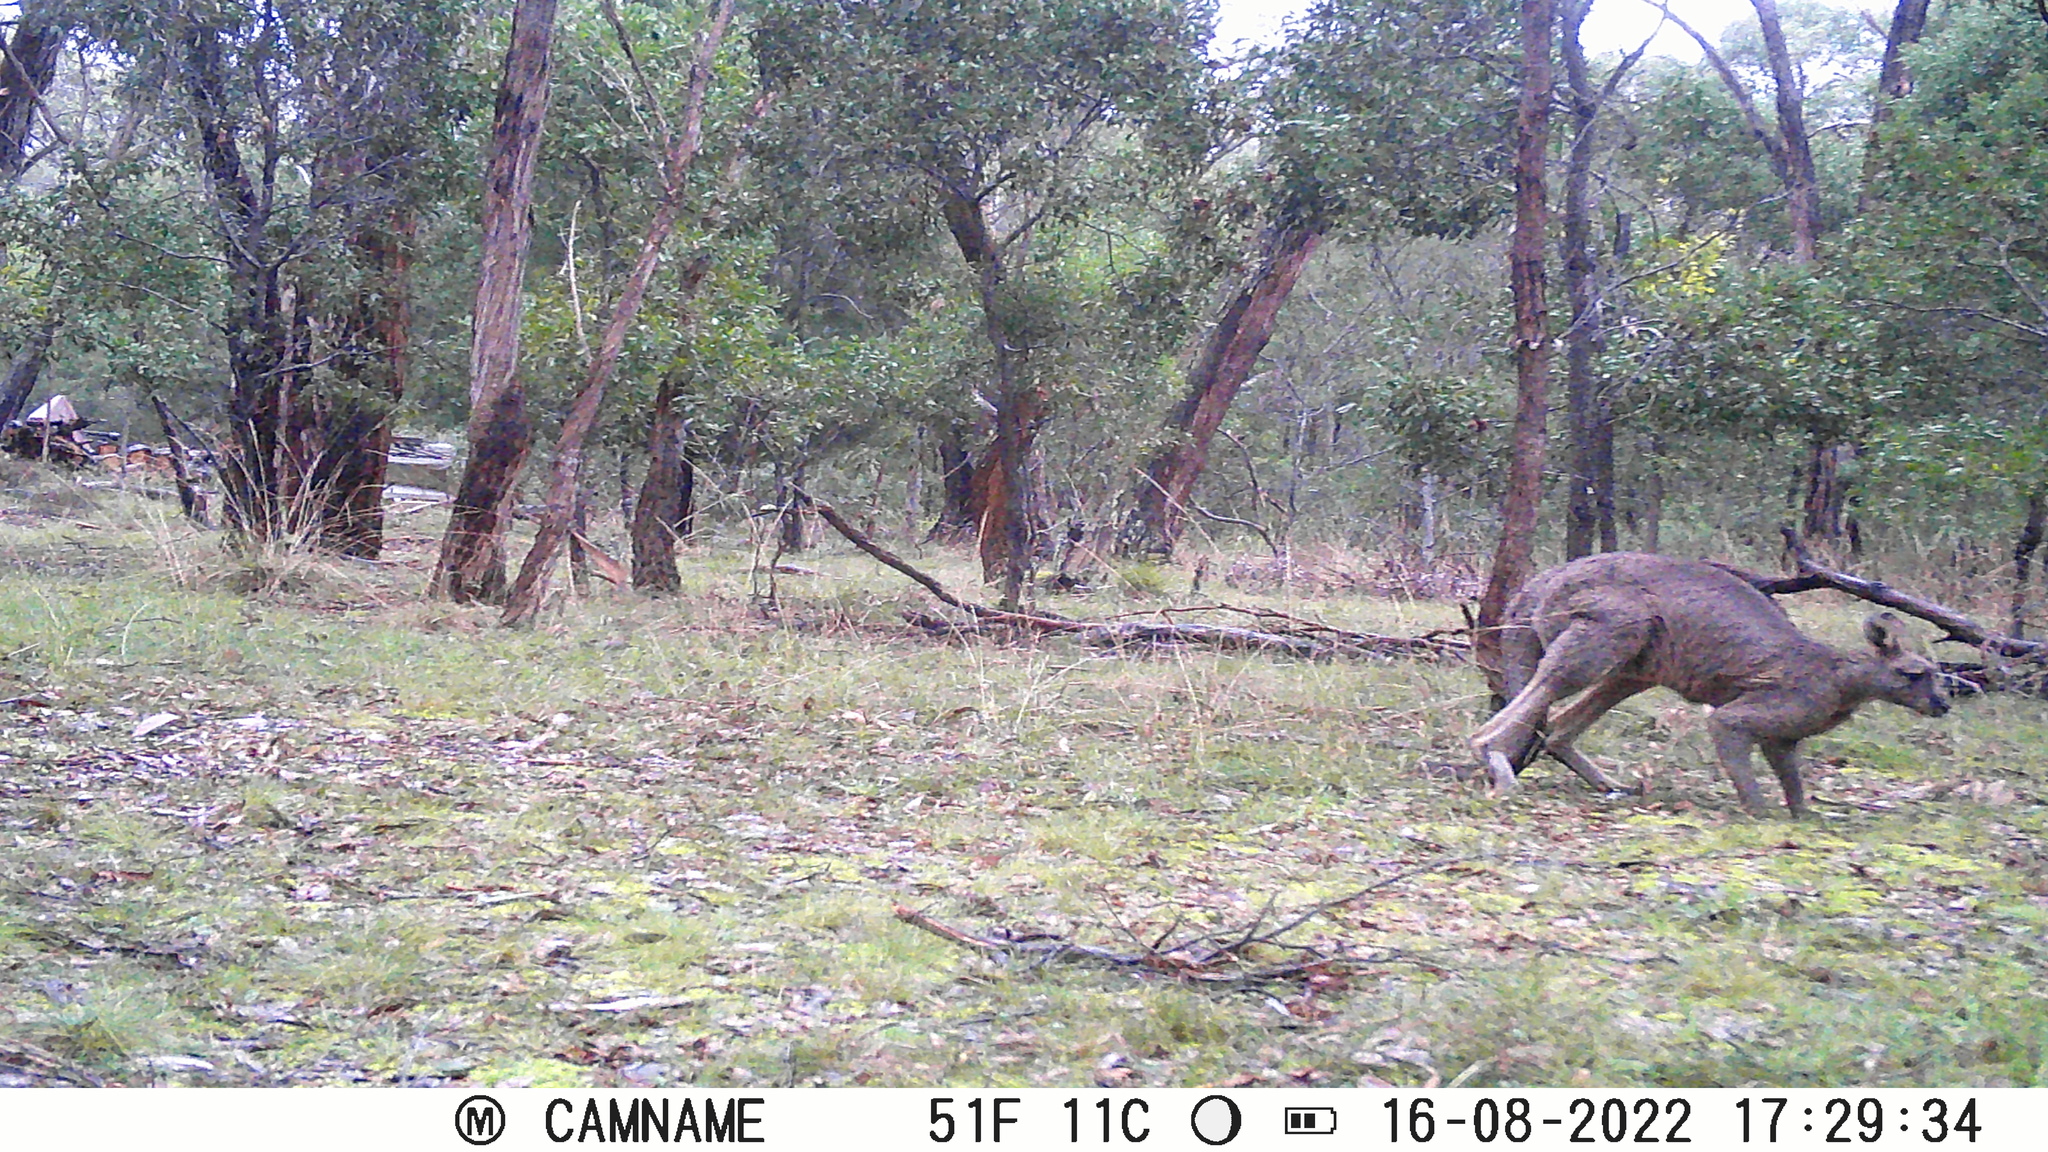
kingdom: Animalia
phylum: Chordata
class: Mammalia
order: Diprotodontia
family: Macropodidae
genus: Macropus
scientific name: Macropus giganteus
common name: Eastern grey kangaroo
